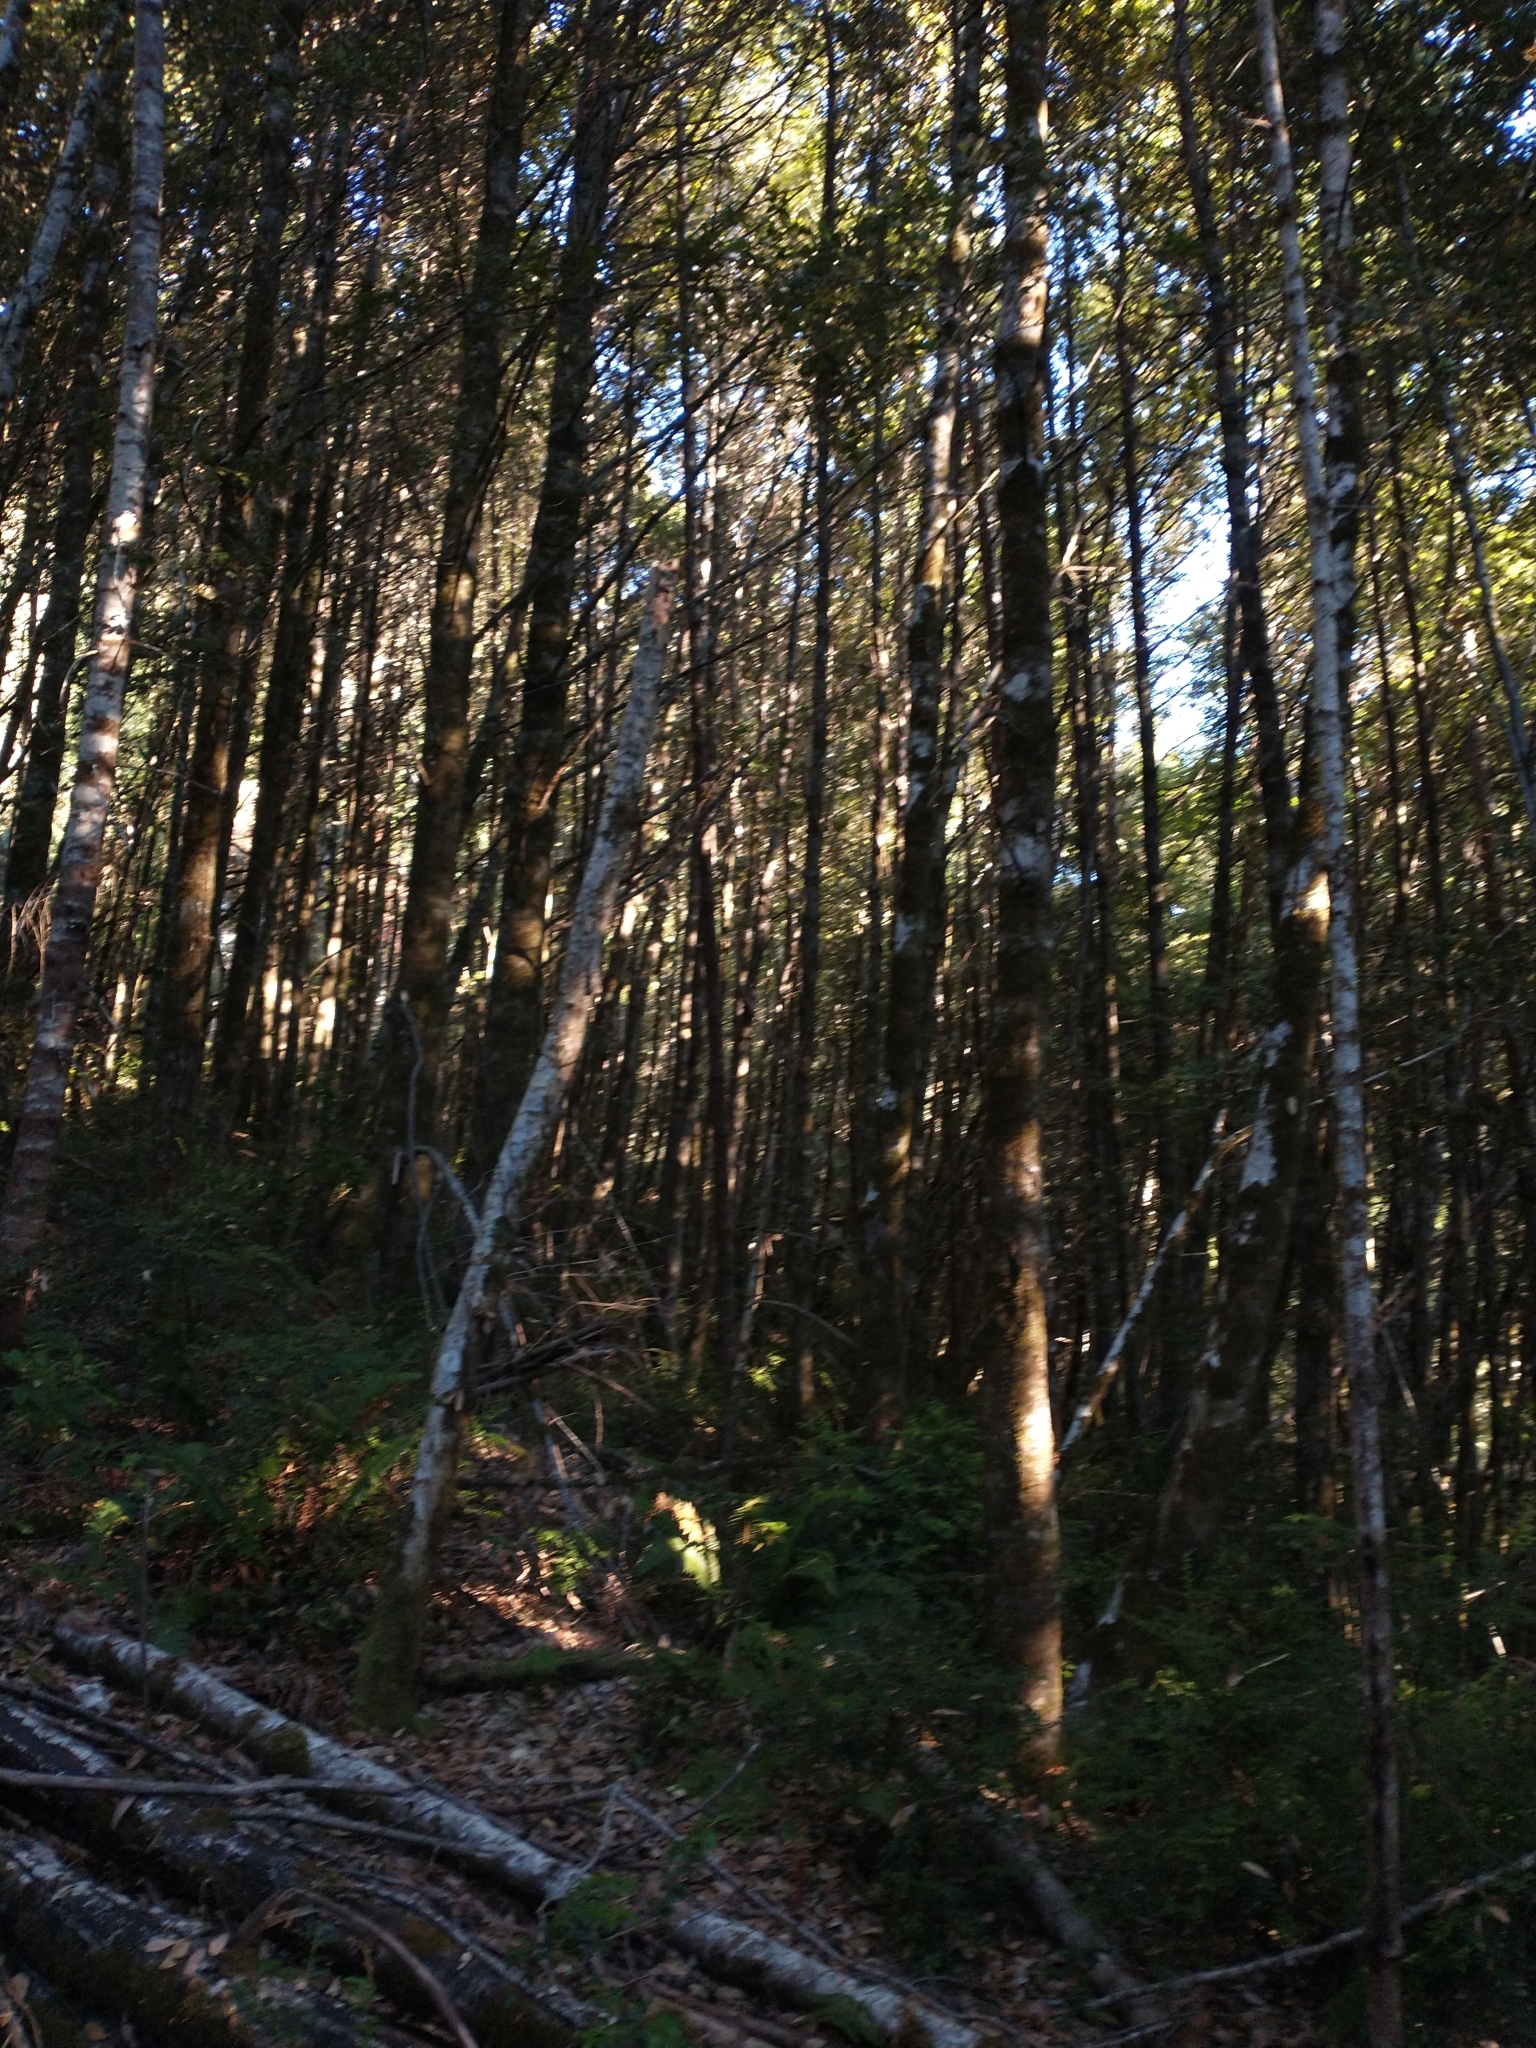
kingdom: Plantae
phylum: Tracheophyta
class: Magnoliopsida
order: Fagales
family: Fagaceae
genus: Notholithocarpus
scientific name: Notholithocarpus densiflorus
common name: Tan bark oak
